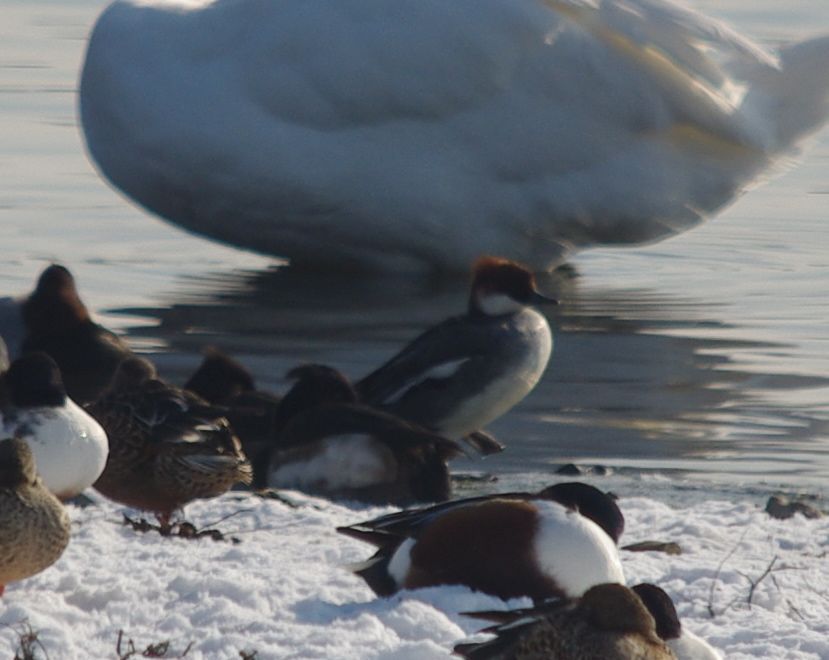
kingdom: Animalia
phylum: Chordata
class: Aves
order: Anseriformes
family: Anatidae
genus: Mergellus
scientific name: Mergellus albellus
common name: Smew
